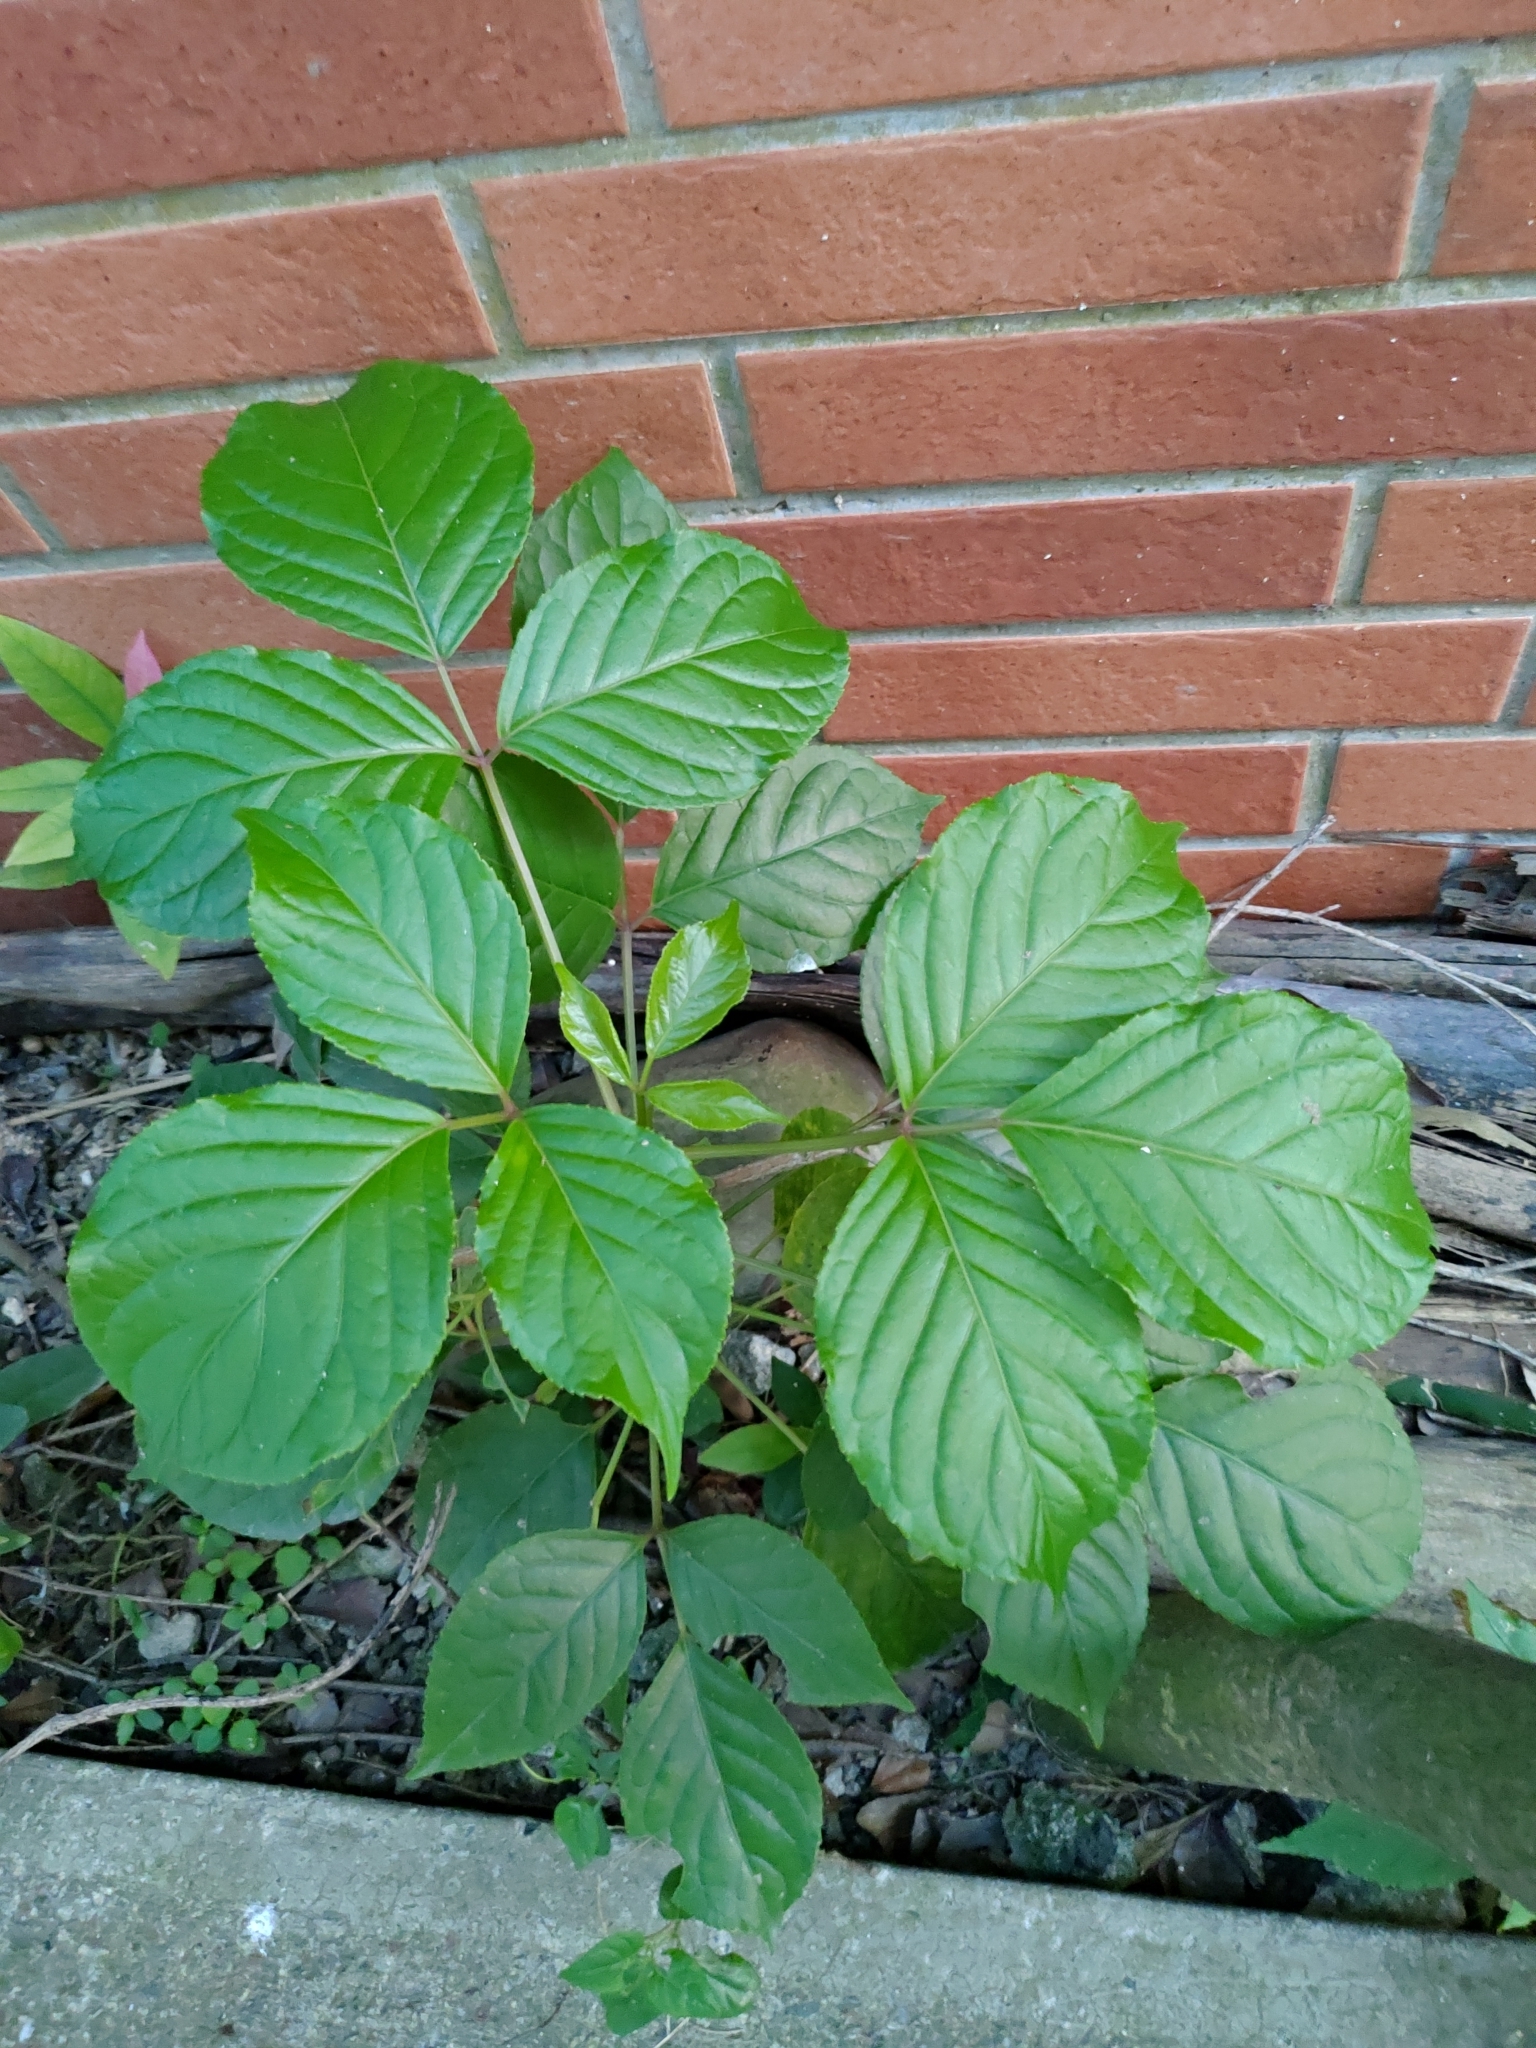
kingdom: Plantae
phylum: Tracheophyta
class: Magnoliopsida
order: Malpighiales
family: Phyllanthaceae
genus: Bischofia
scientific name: Bischofia javanica
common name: Javanese bishopwood
